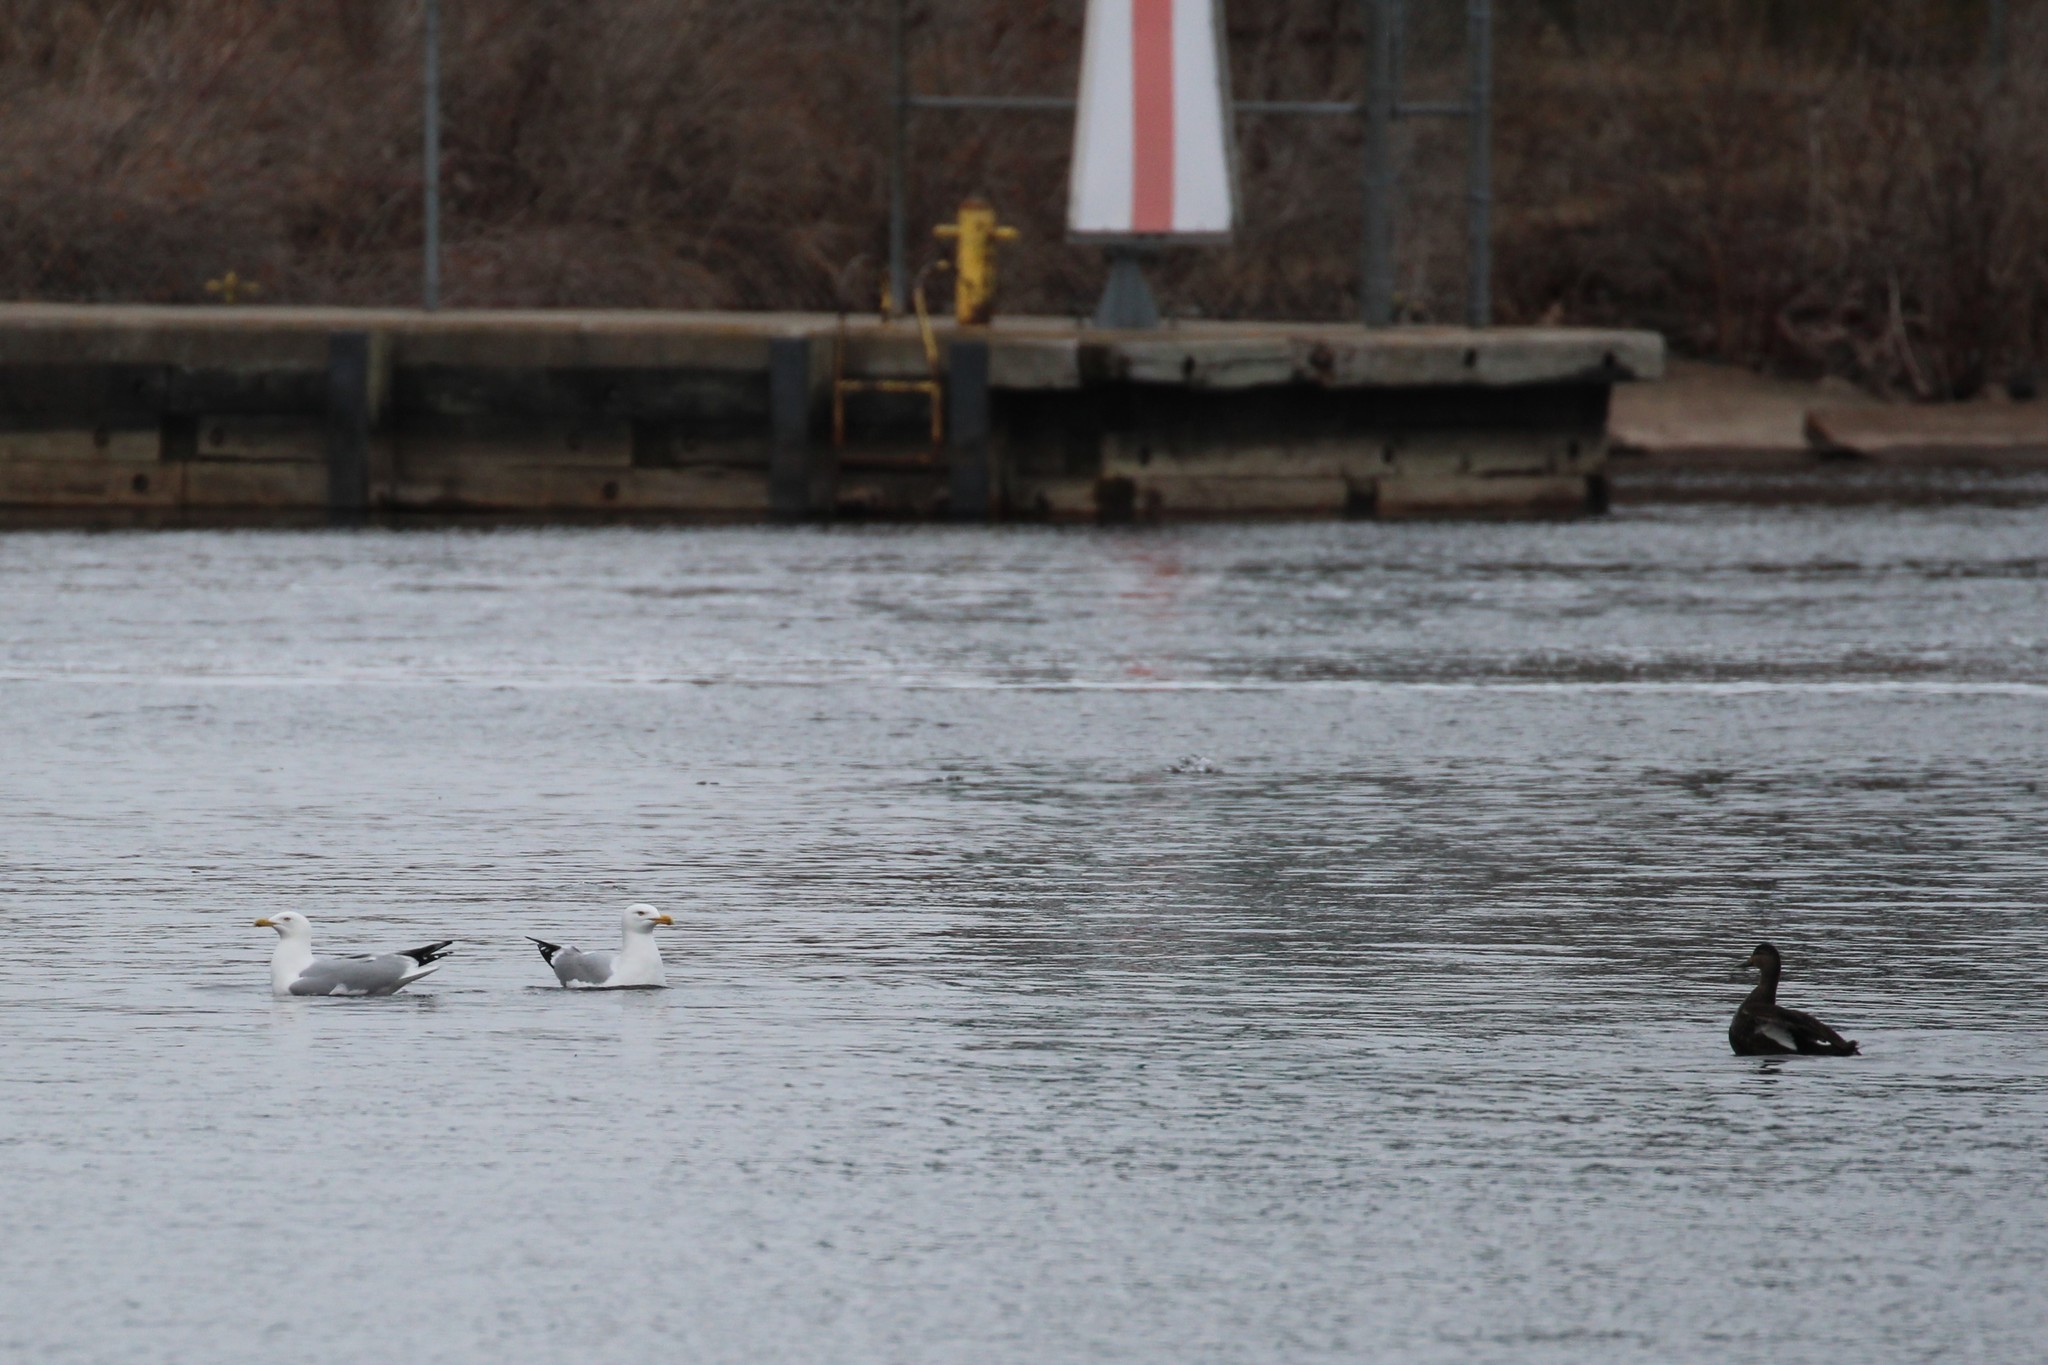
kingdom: Animalia
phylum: Chordata
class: Aves
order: Charadriiformes
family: Laridae
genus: Larus
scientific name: Larus argentatus
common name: Herring gull
